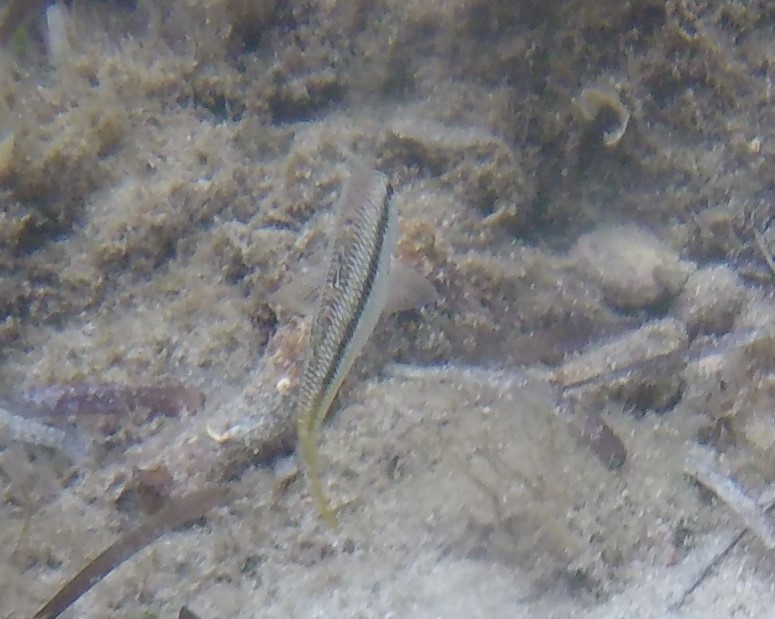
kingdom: Animalia
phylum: Chordata
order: Perciformes
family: Mullidae
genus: Mullus
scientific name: Mullus surmuletus
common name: Red mullet
